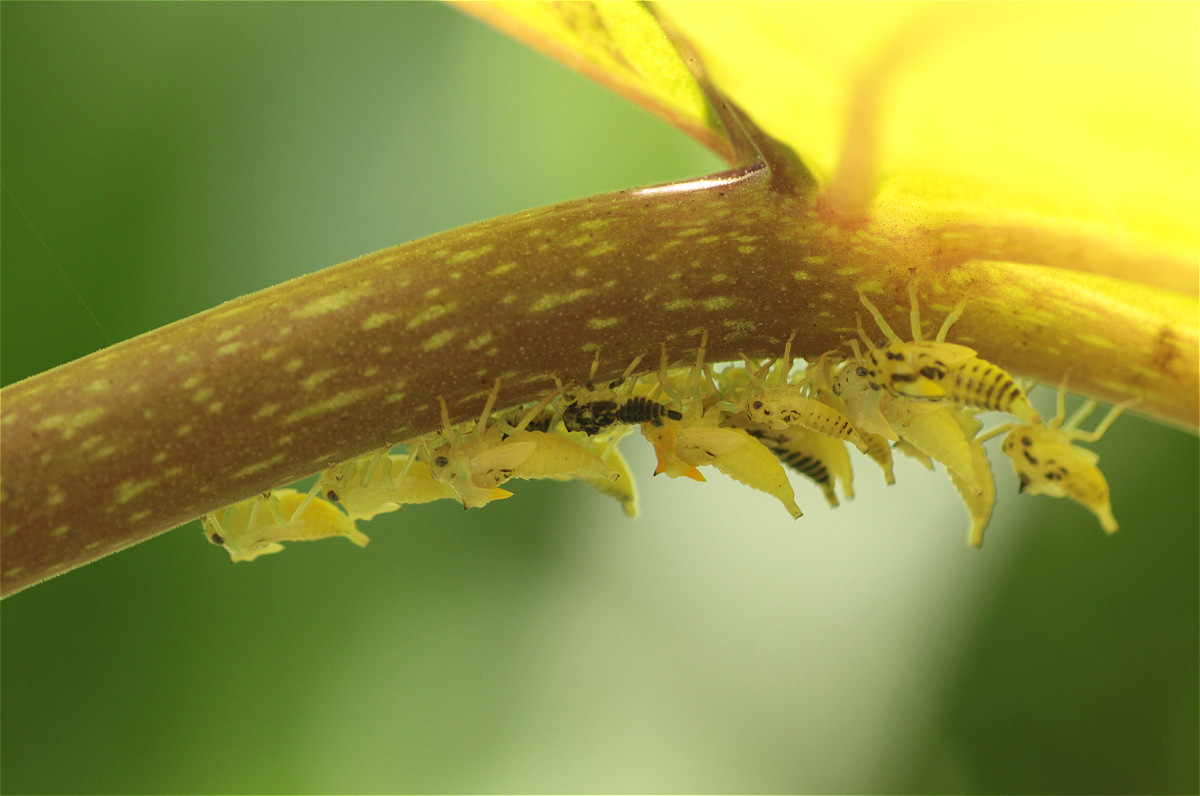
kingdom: Animalia
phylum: Arthropoda
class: Insecta
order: Hemiptera
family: Membracidae
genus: Ennya
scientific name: Ennya chrysura
